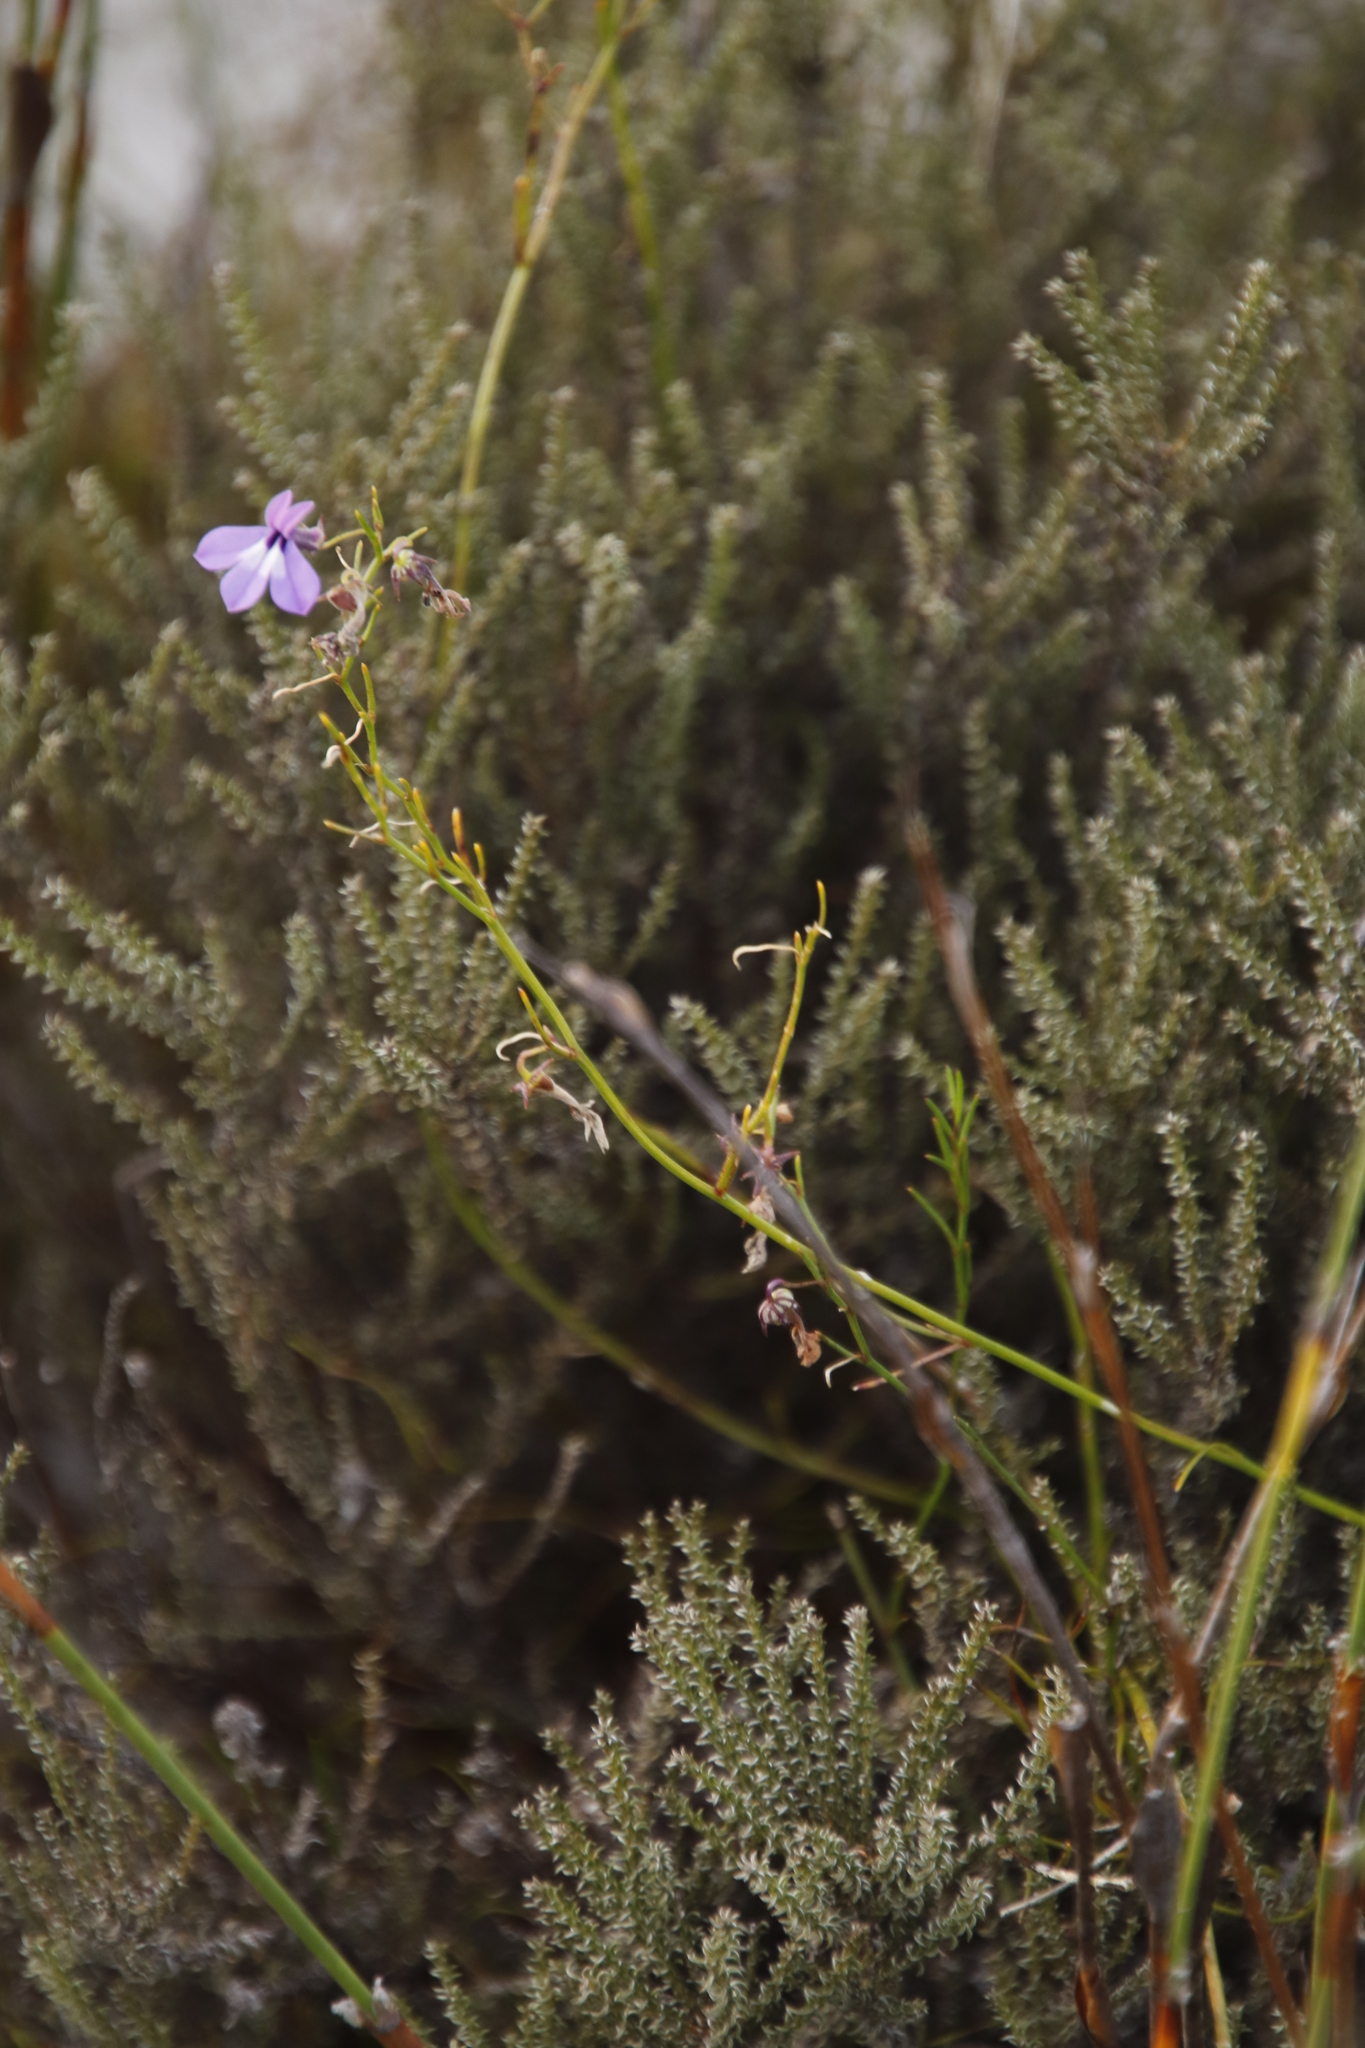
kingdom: Plantae
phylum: Tracheophyta
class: Magnoliopsida
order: Asterales
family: Campanulaceae
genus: Lobelia
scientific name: Lobelia setacea
